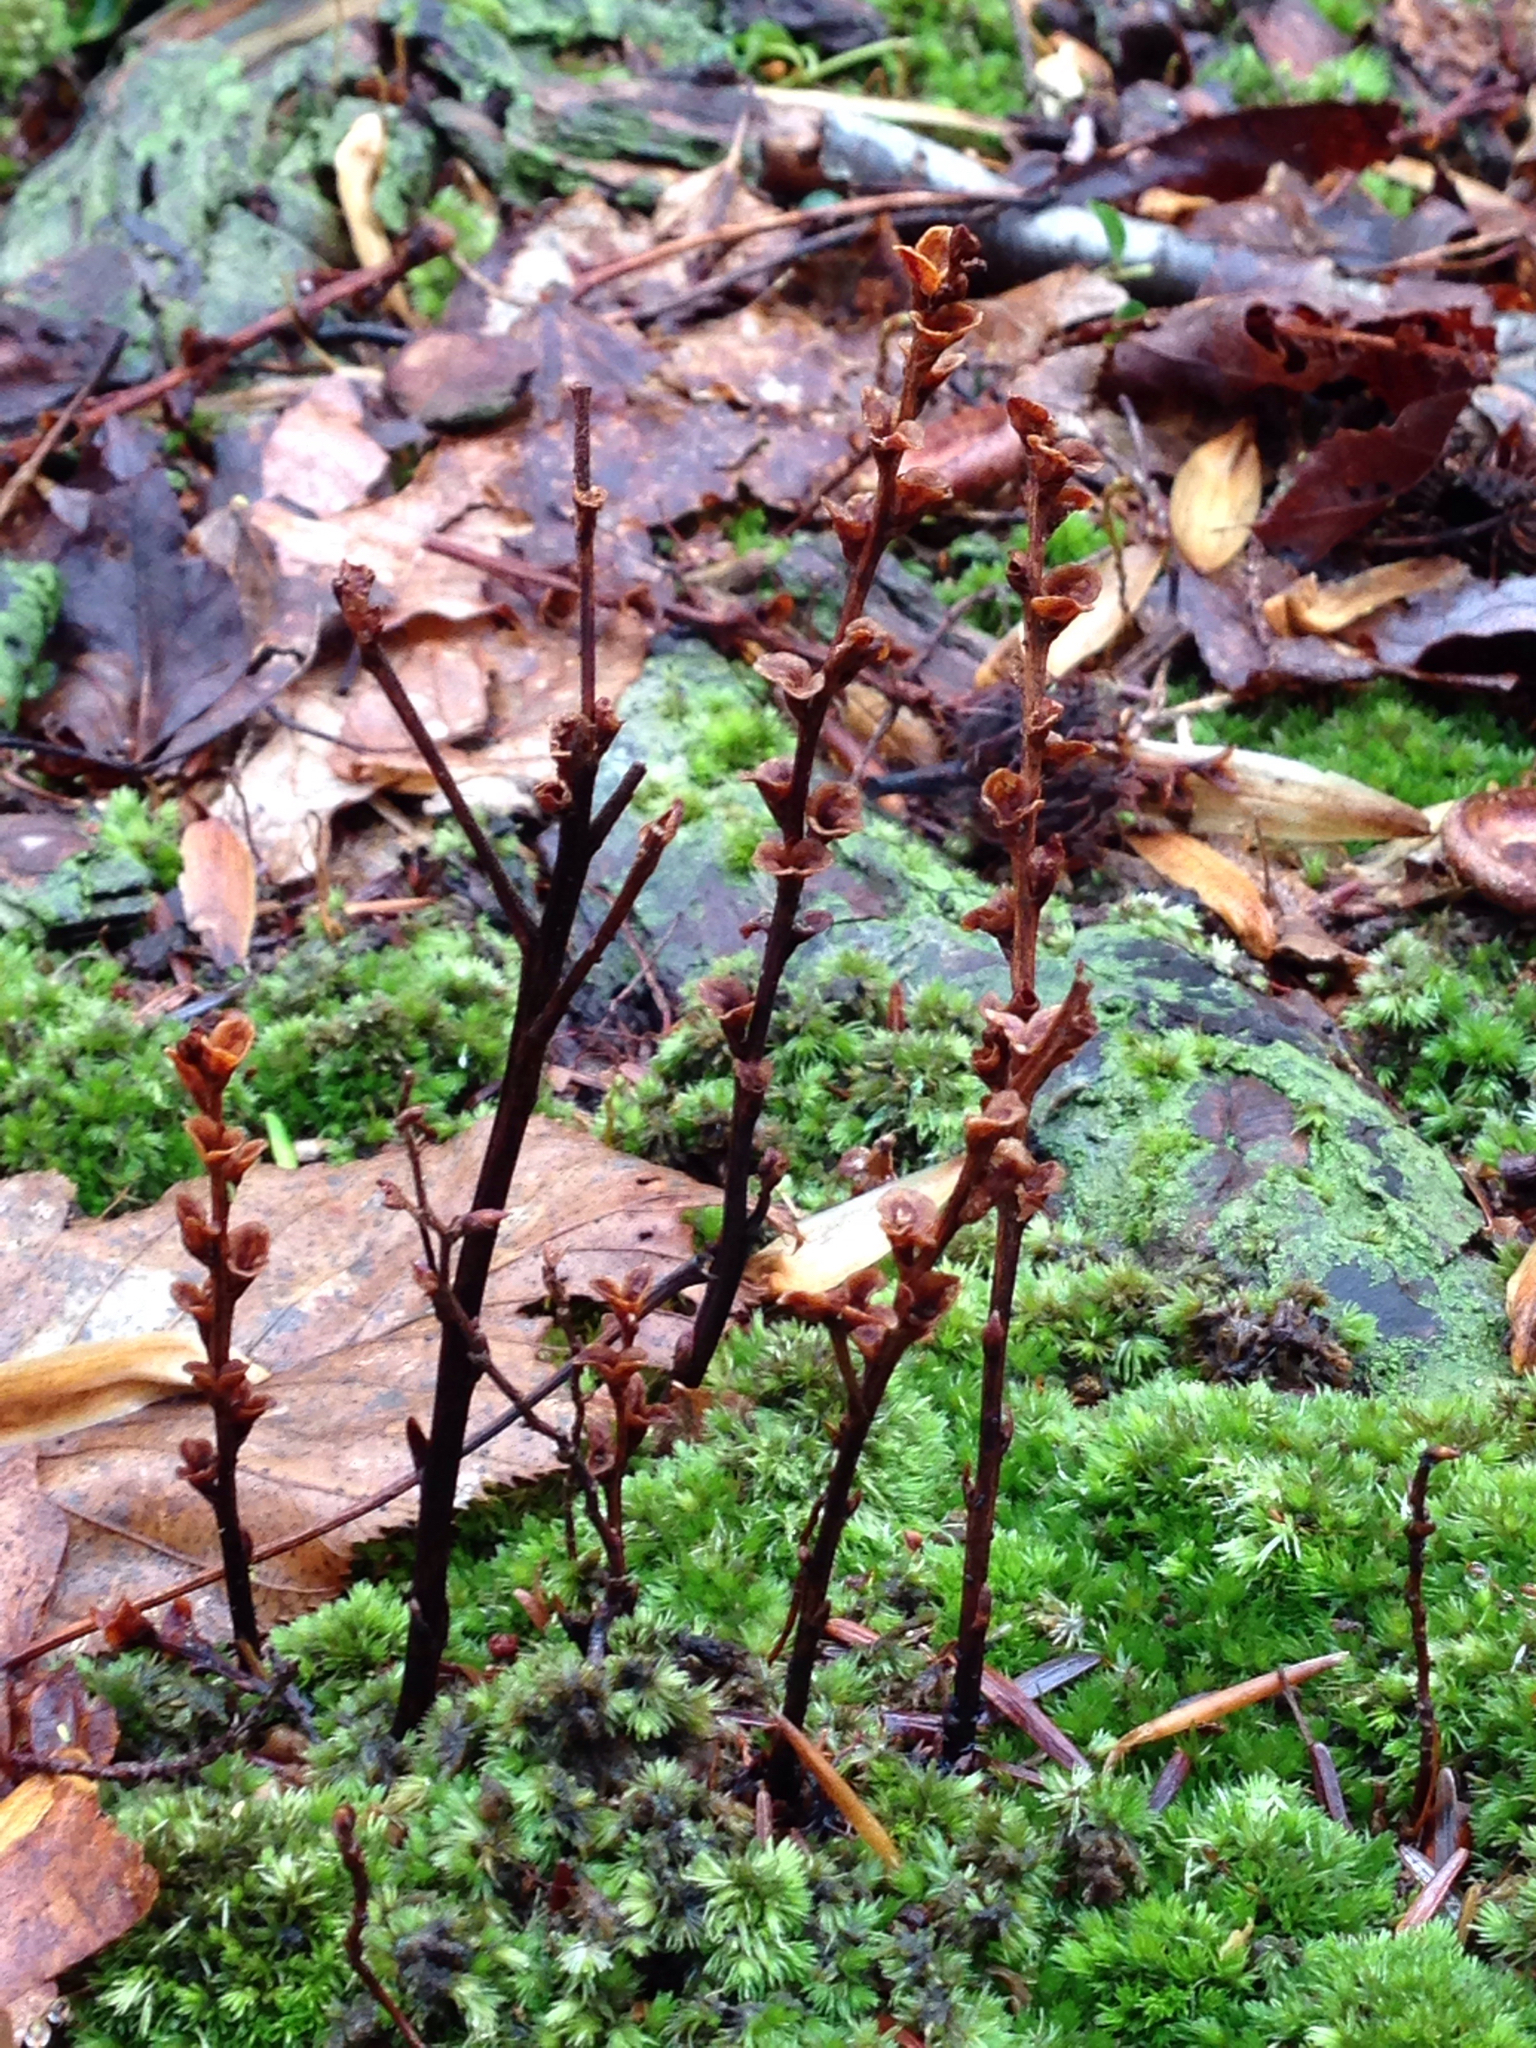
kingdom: Plantae
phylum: Tracheophyta
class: Magnoliopsida
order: Lamiales
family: Orobanchaceae
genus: Epifagus
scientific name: Epifagus virginiana
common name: Beechdrops
